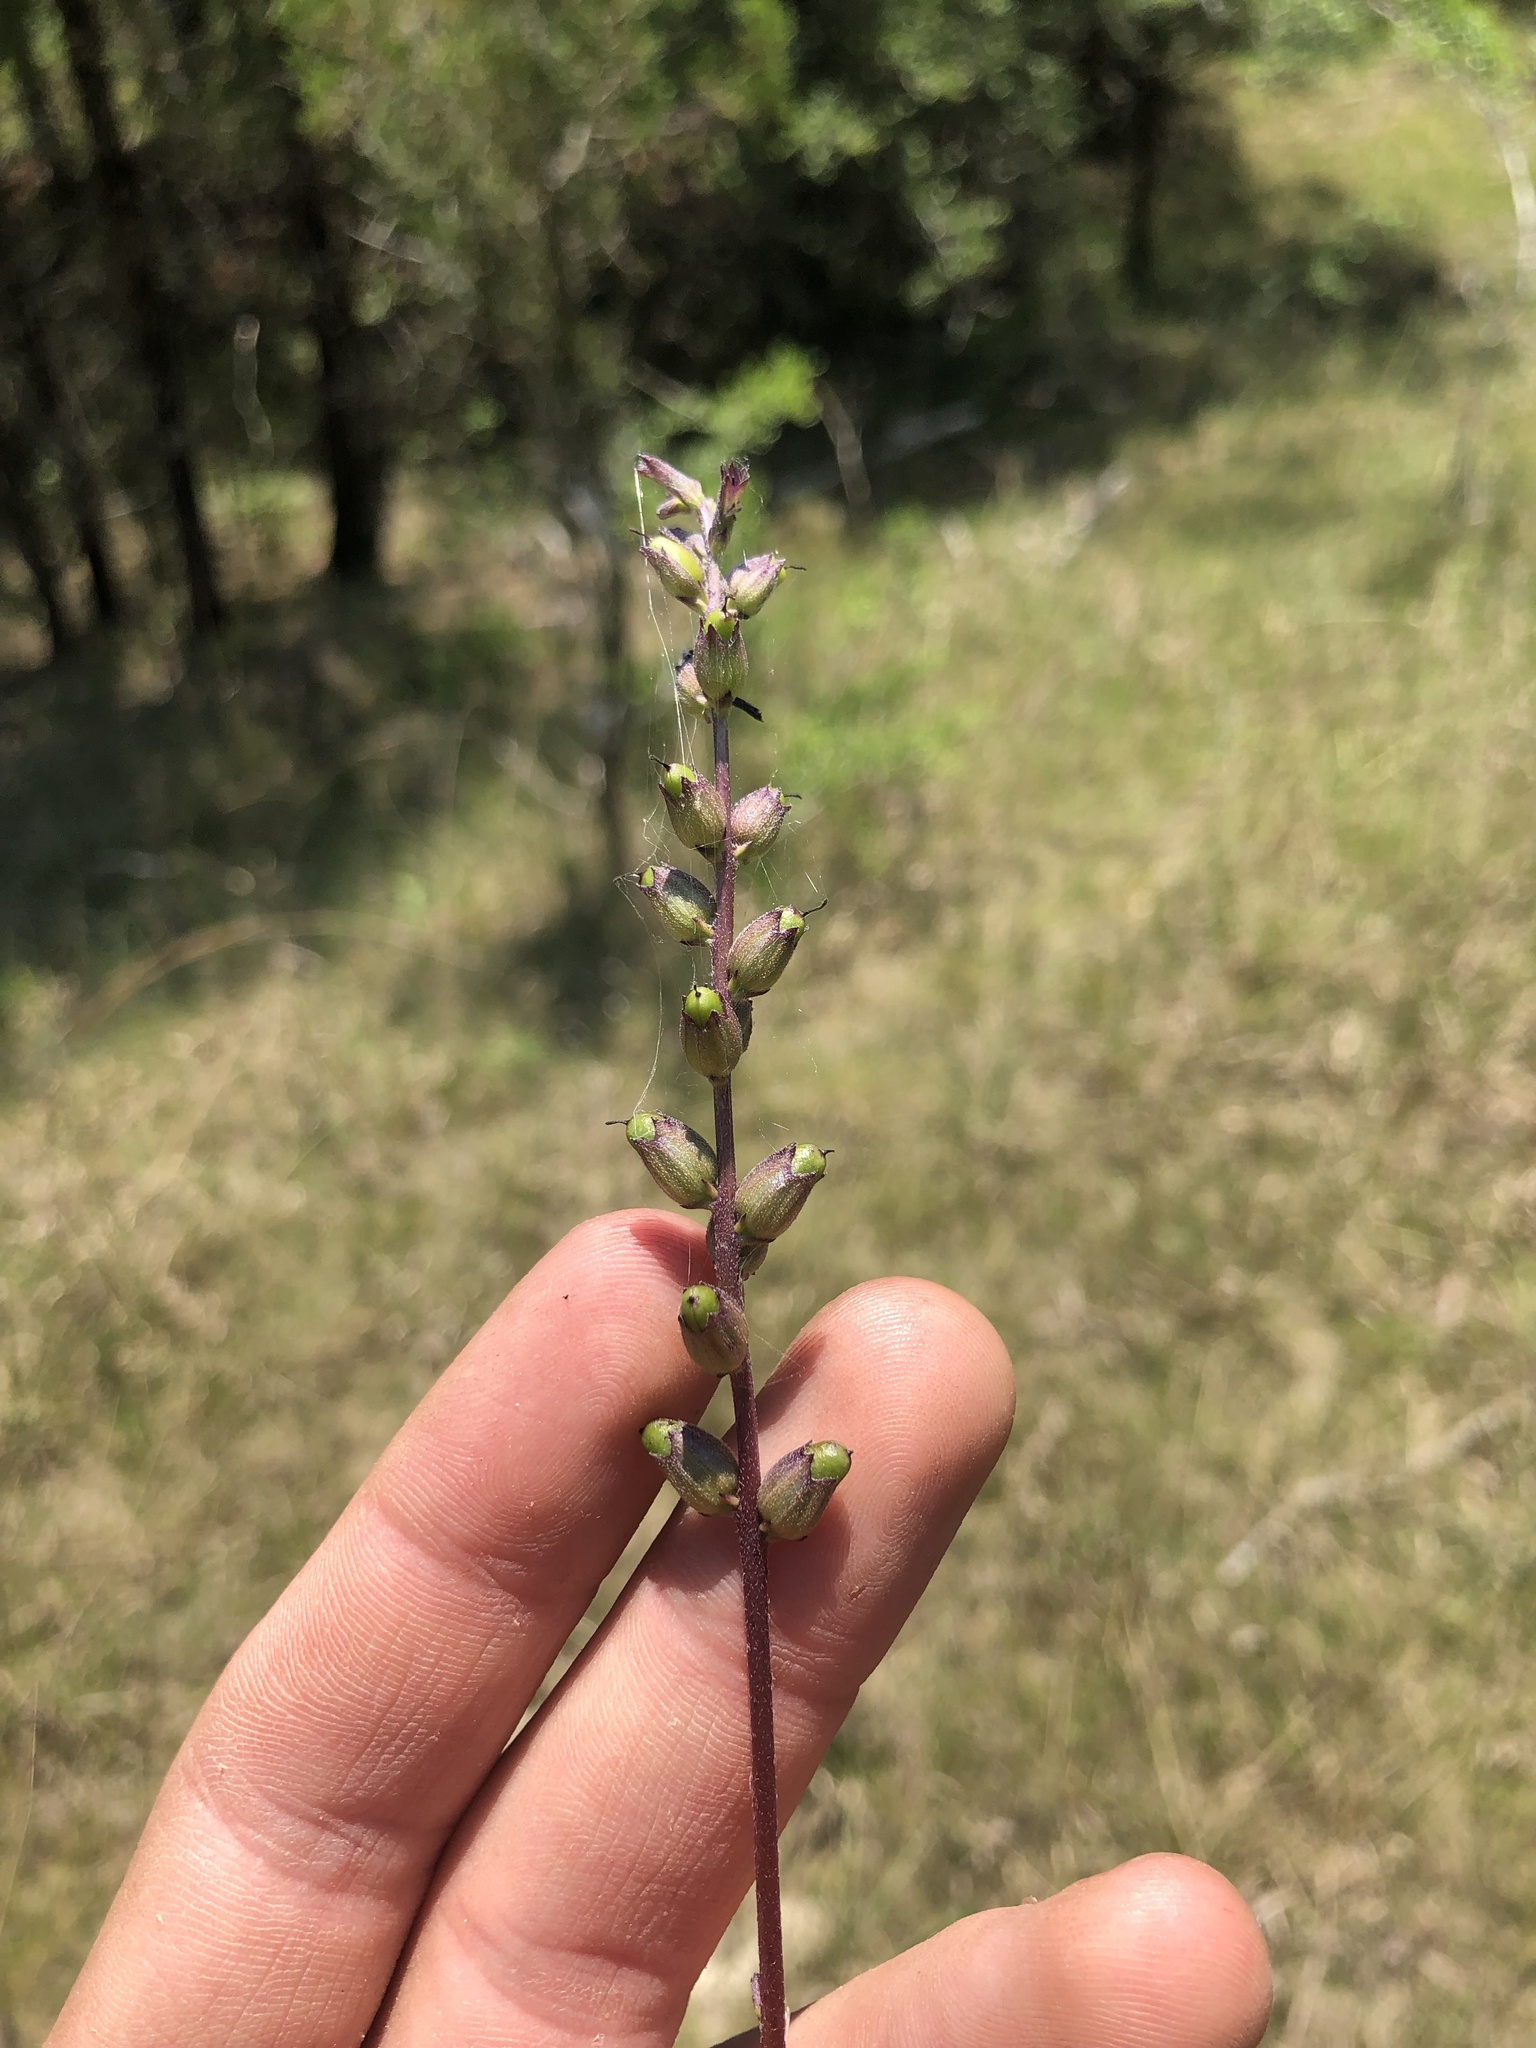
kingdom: Plantae
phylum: Tracheophyta
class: Magnoliopsida
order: Lamiales
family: Orobanchaceae
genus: Buchnera
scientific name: Buchnera floridana
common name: Florida bluehearts
